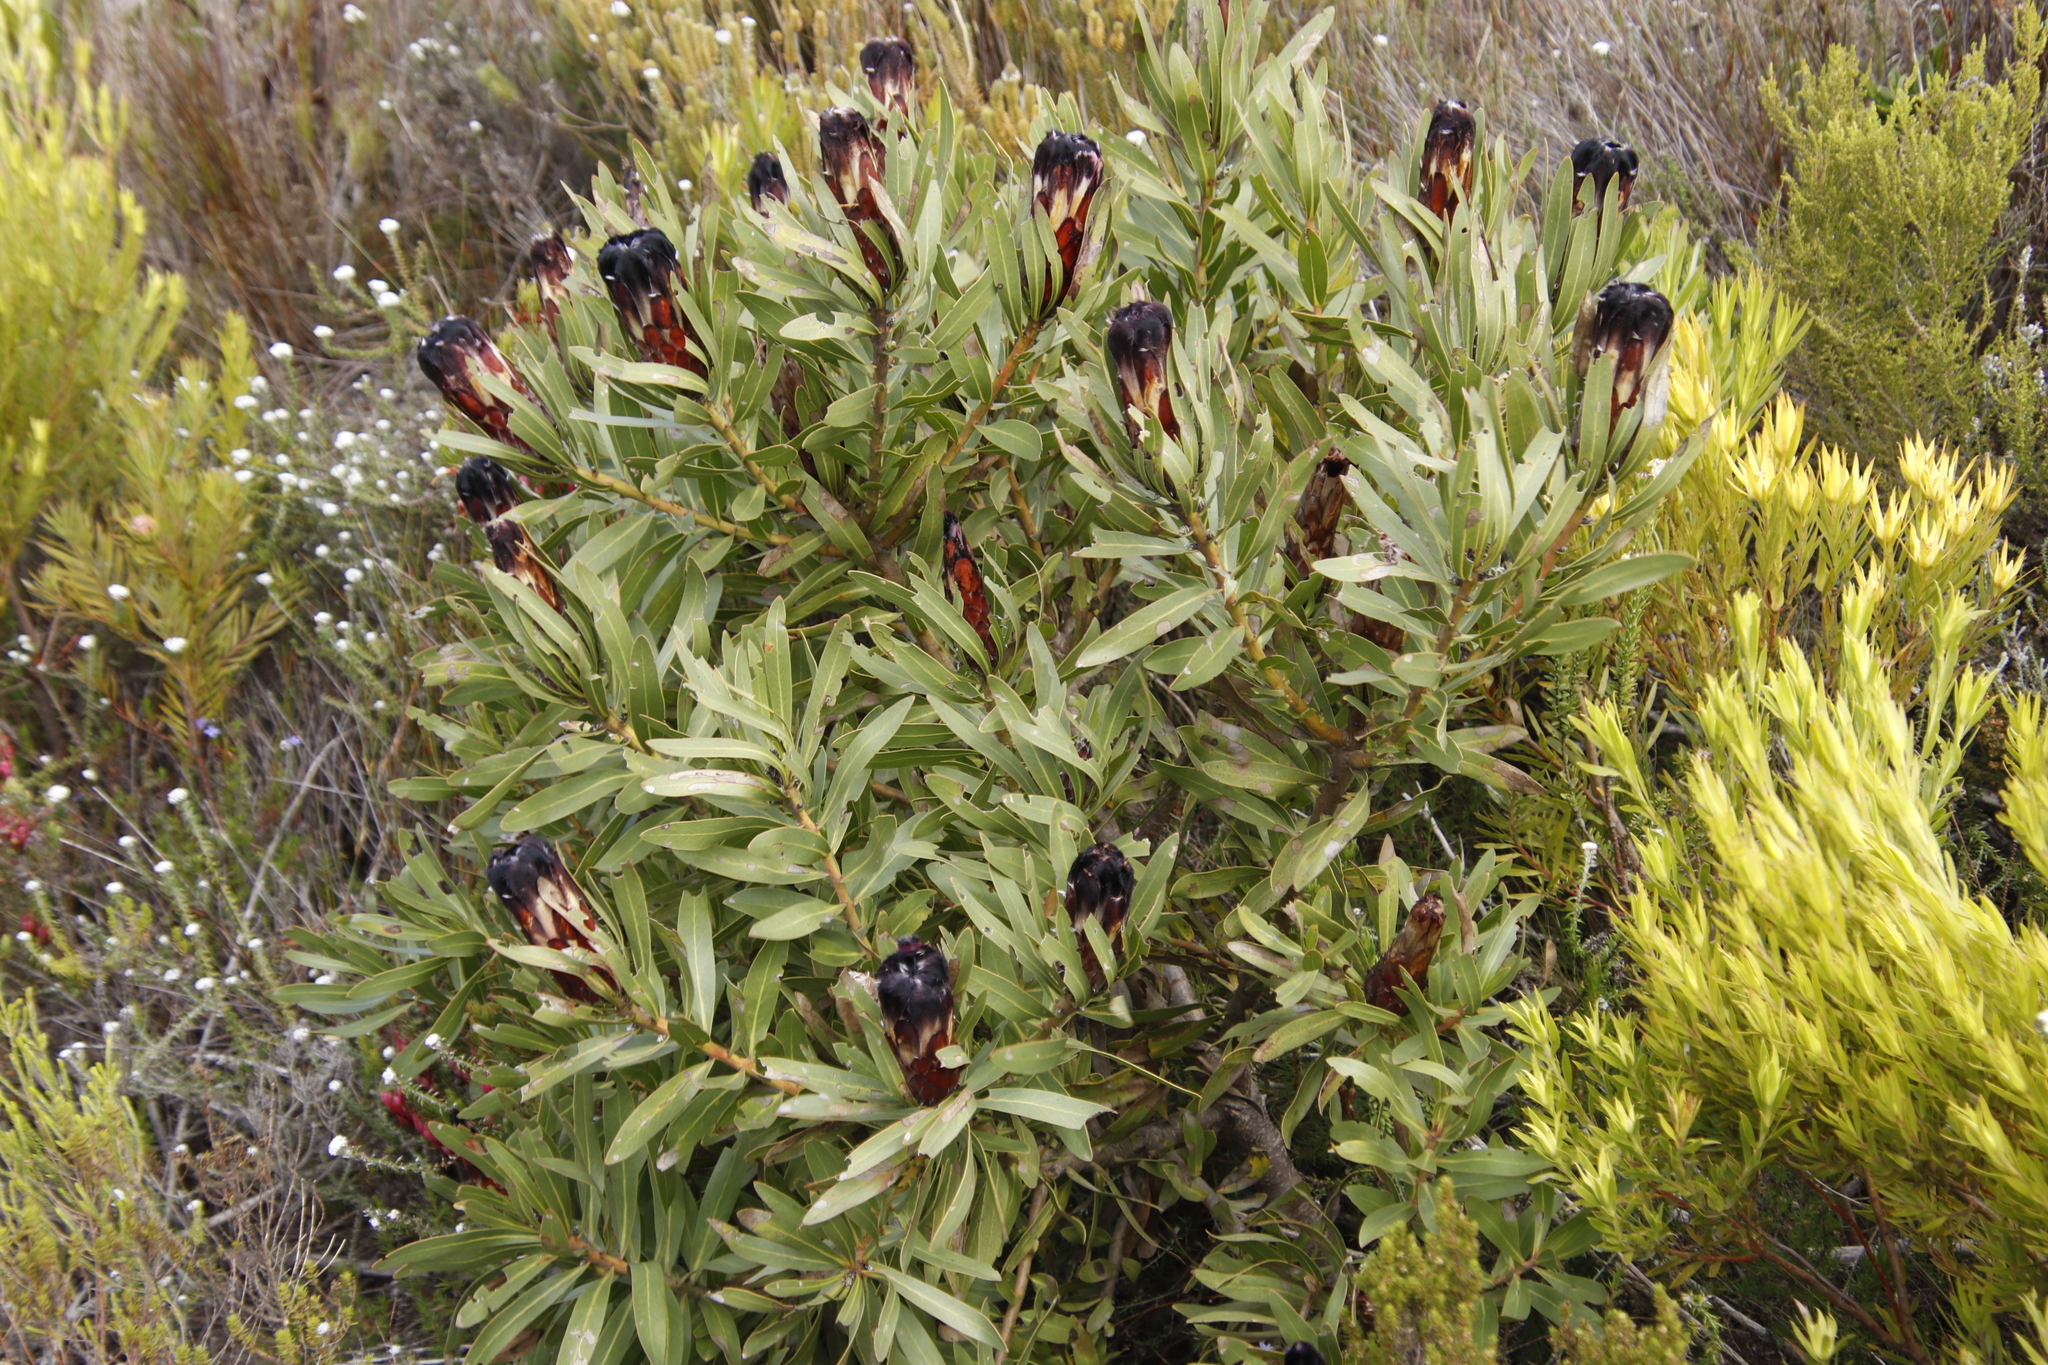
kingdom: Plantae
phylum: Tracheophyta
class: Magnoliopsida
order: Proteales
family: Proteaceae
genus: Protea
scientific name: Protea lepidocarpodendron
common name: Black-bearded protea
